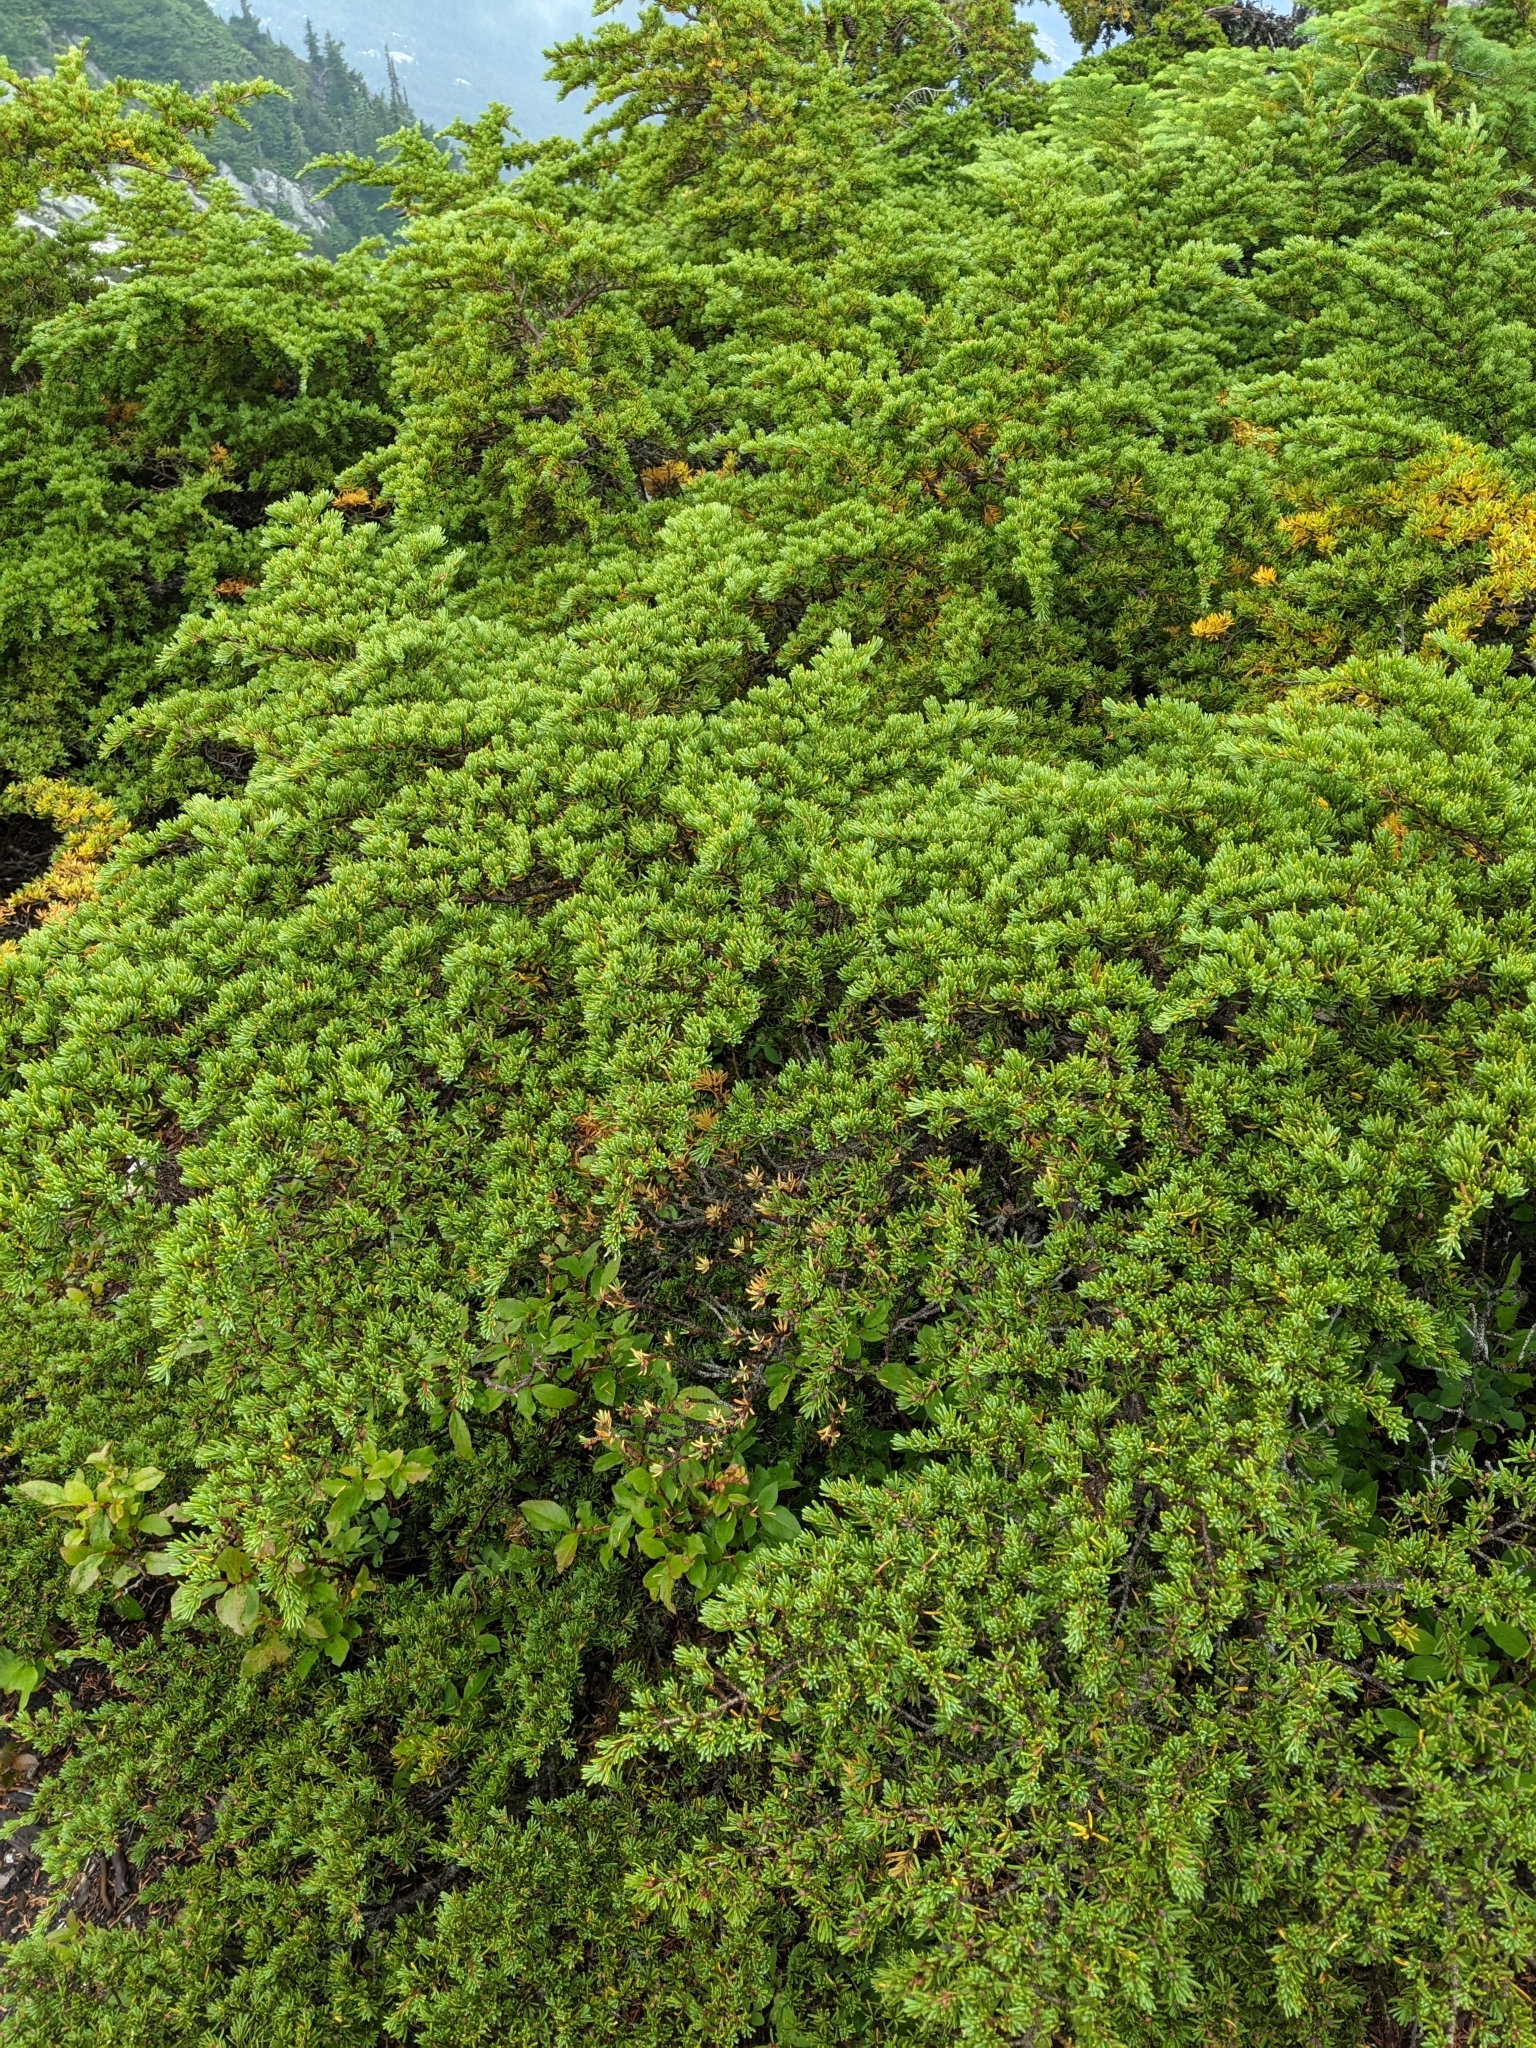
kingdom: Plantae
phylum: Tracheophyta
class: Pinopsida
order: Pinales
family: Pinaceae
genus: Tsuga
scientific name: Tsuga mertensiana
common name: Mountain hemlock
